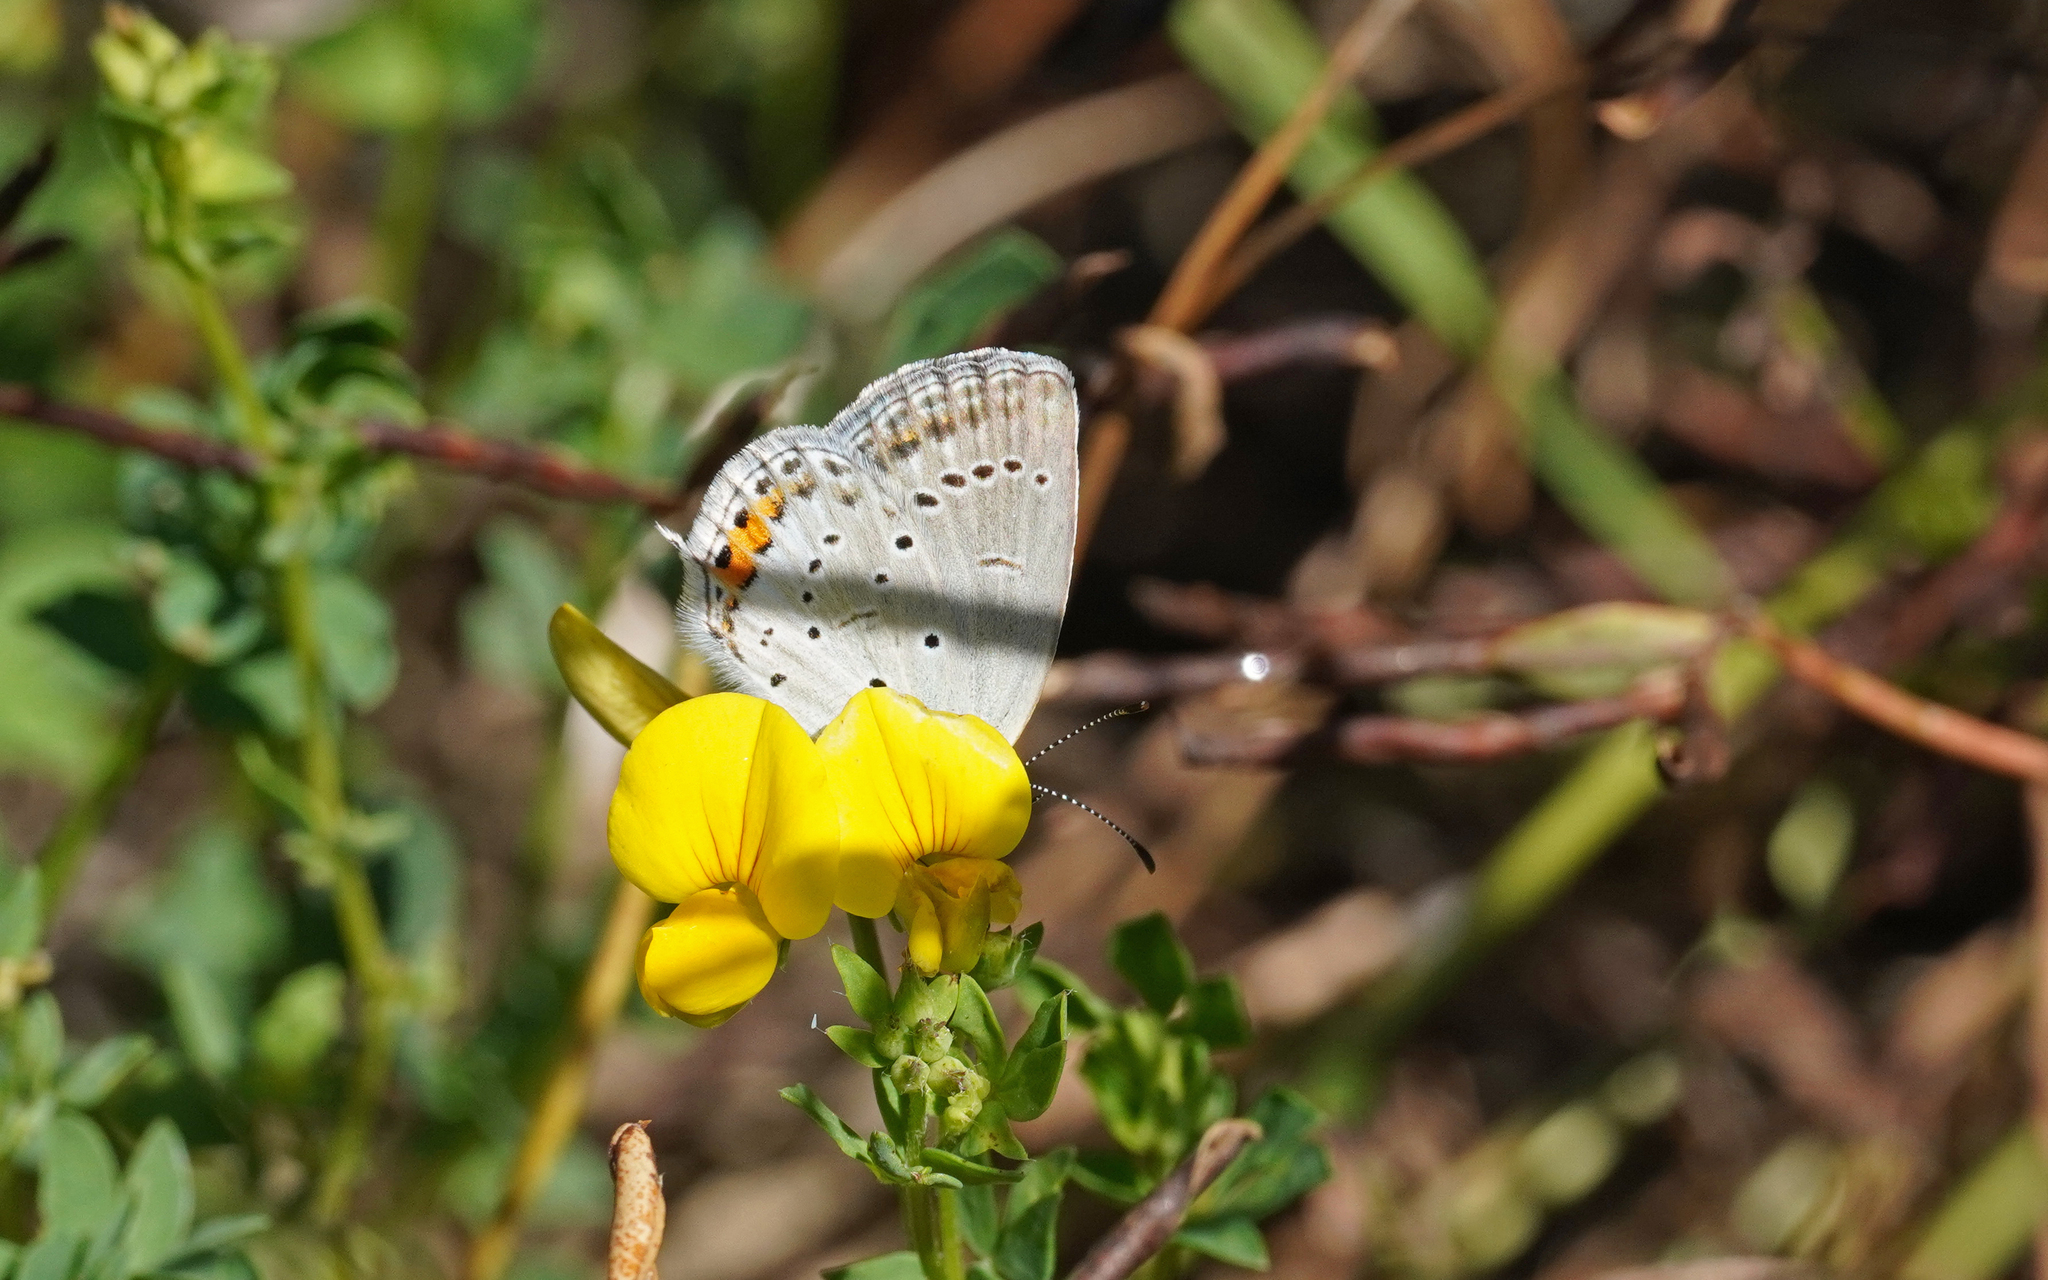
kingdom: Animalia
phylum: Arthropoda
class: Insecta
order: Lepidoptera
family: Lycaenidae
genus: Elkalyce
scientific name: Elkalyce argiades
